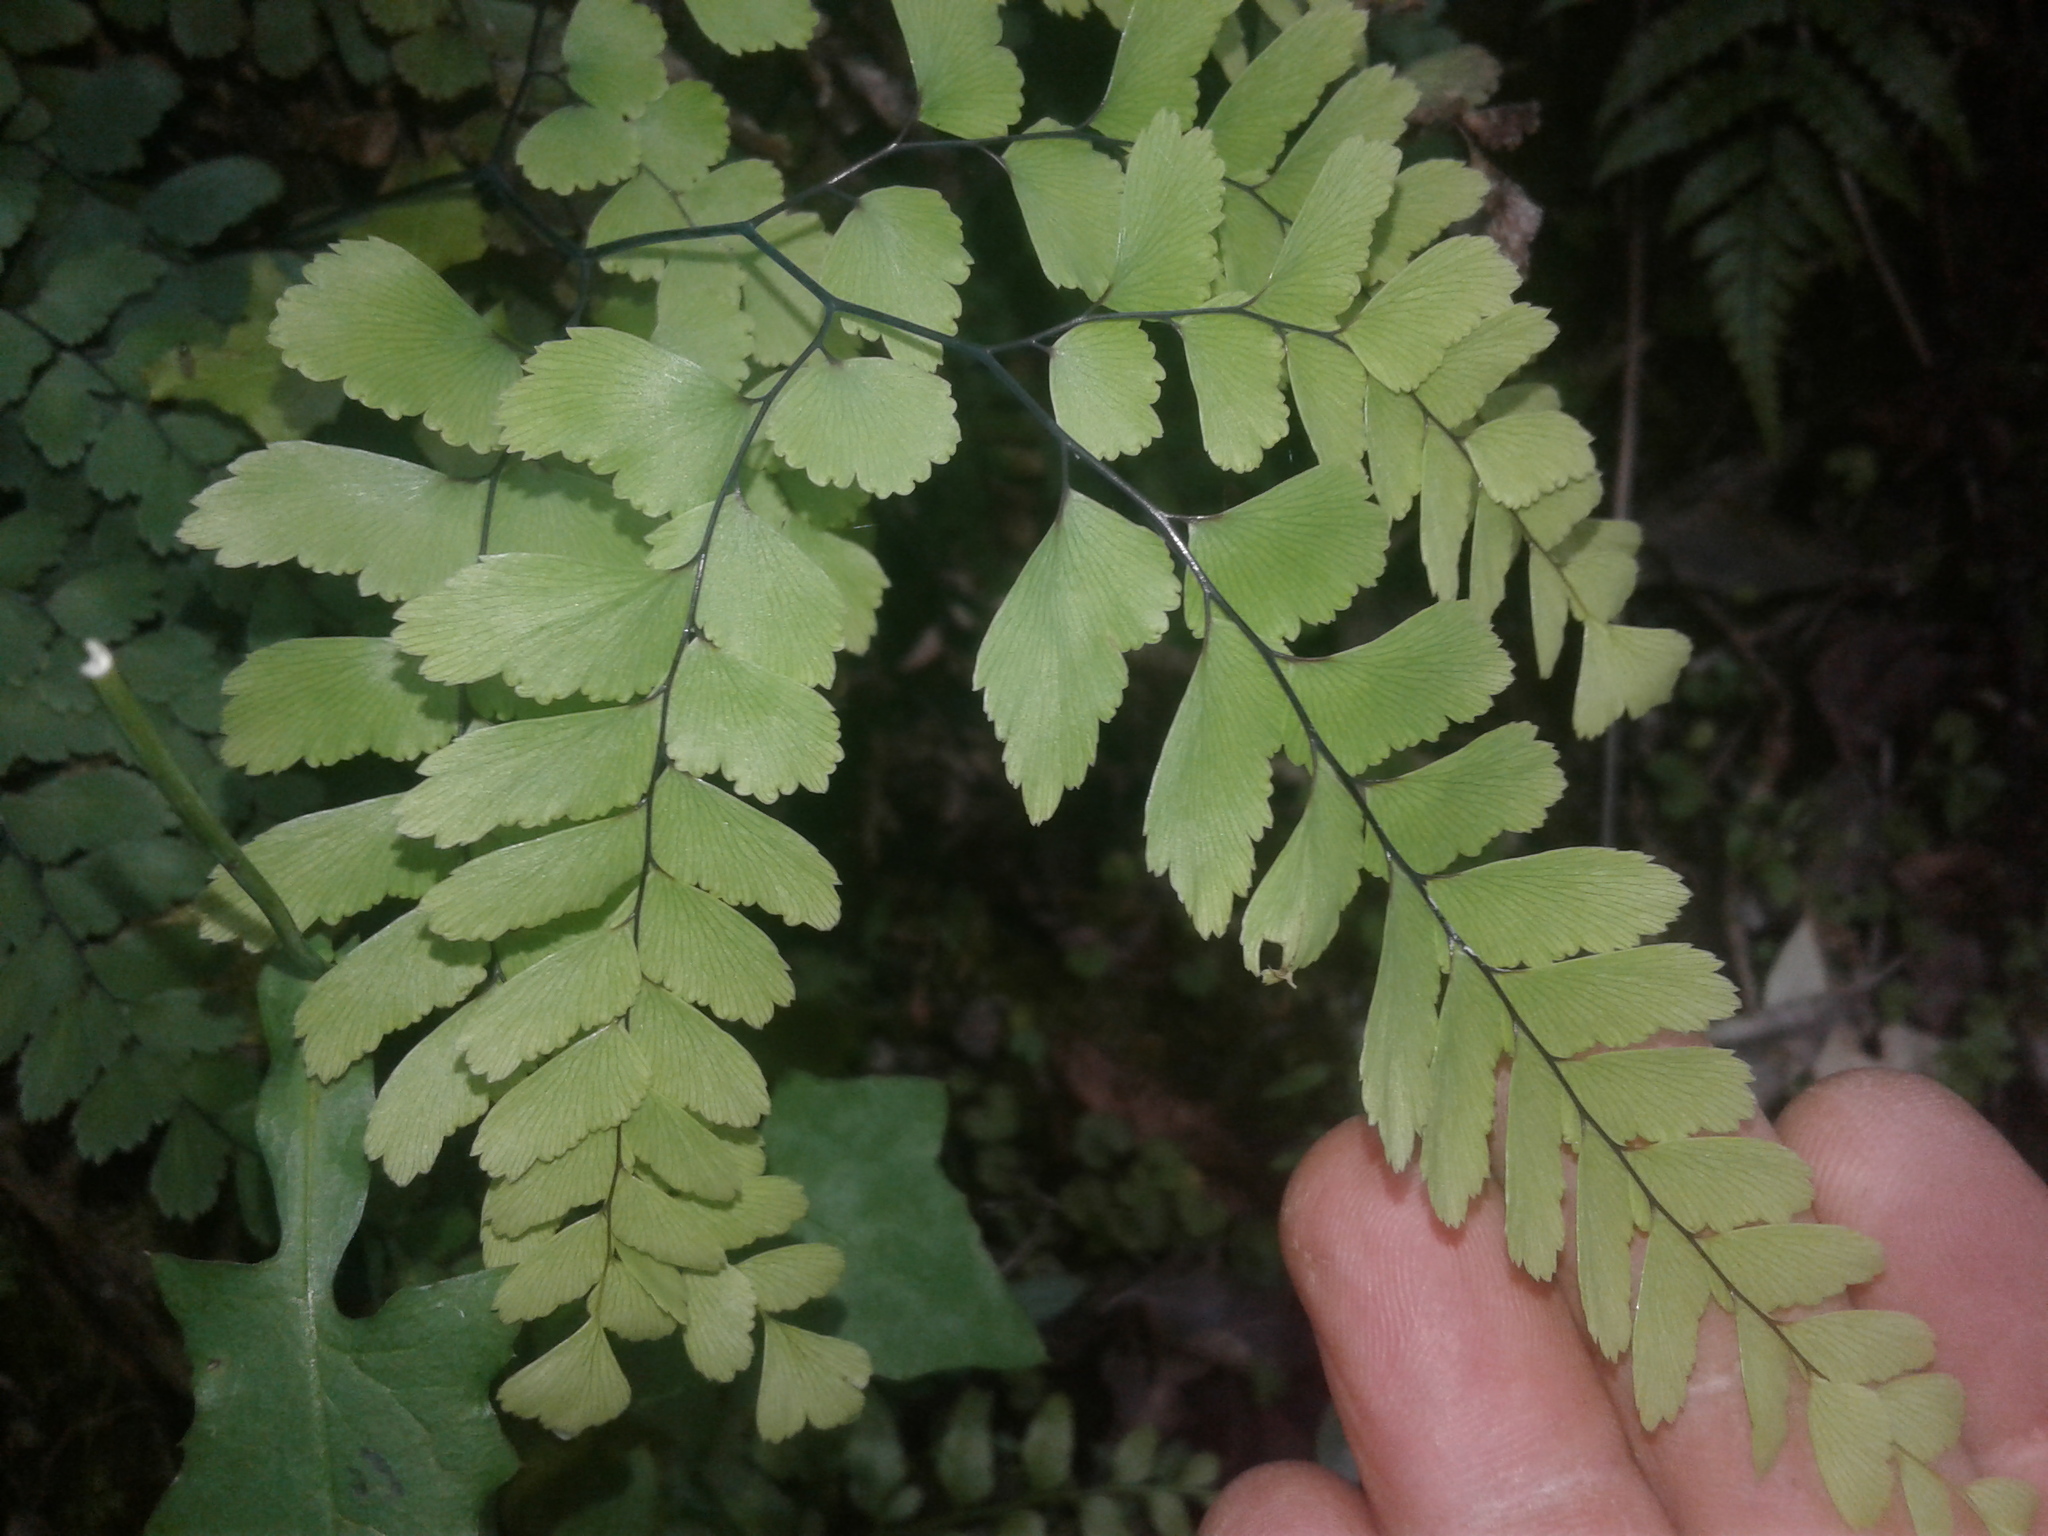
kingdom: Plantae
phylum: Tracheophyta
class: Polypodiopsida
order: Polypodiales
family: Pteridaceae
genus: Adiantum
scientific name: Adiantum cunninghamii
